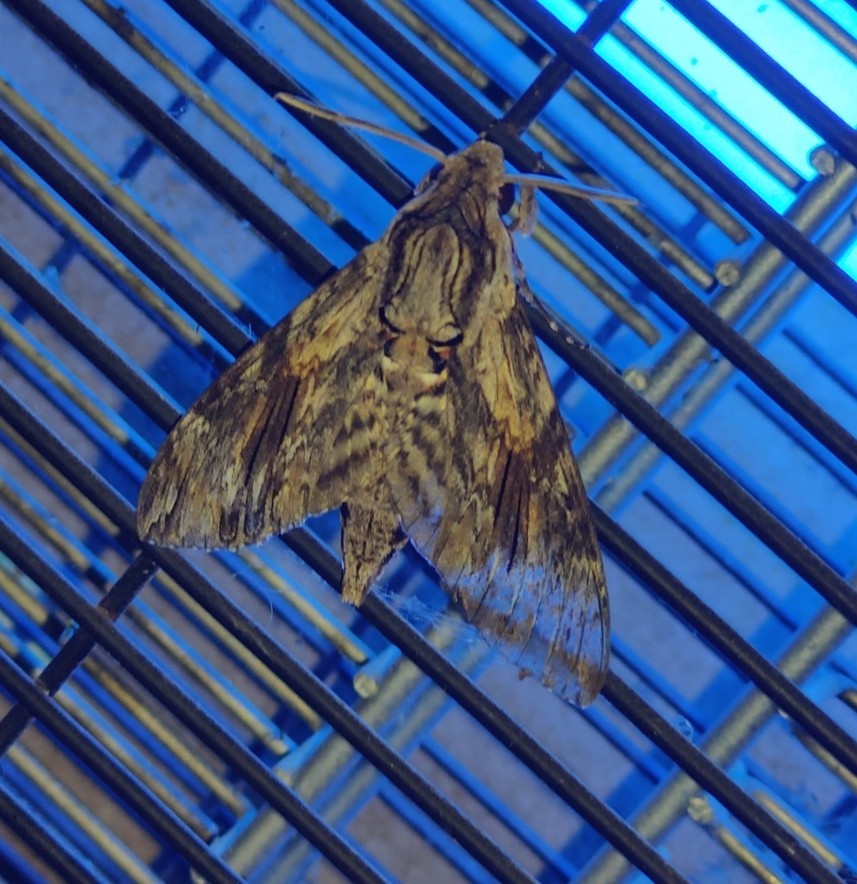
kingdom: Animalia
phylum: Arthropoda
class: Insecta
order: Lepidoptera
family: Sphingidae
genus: Agrius
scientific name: Agrius convolvuli
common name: Convolvulus hawkmoth
